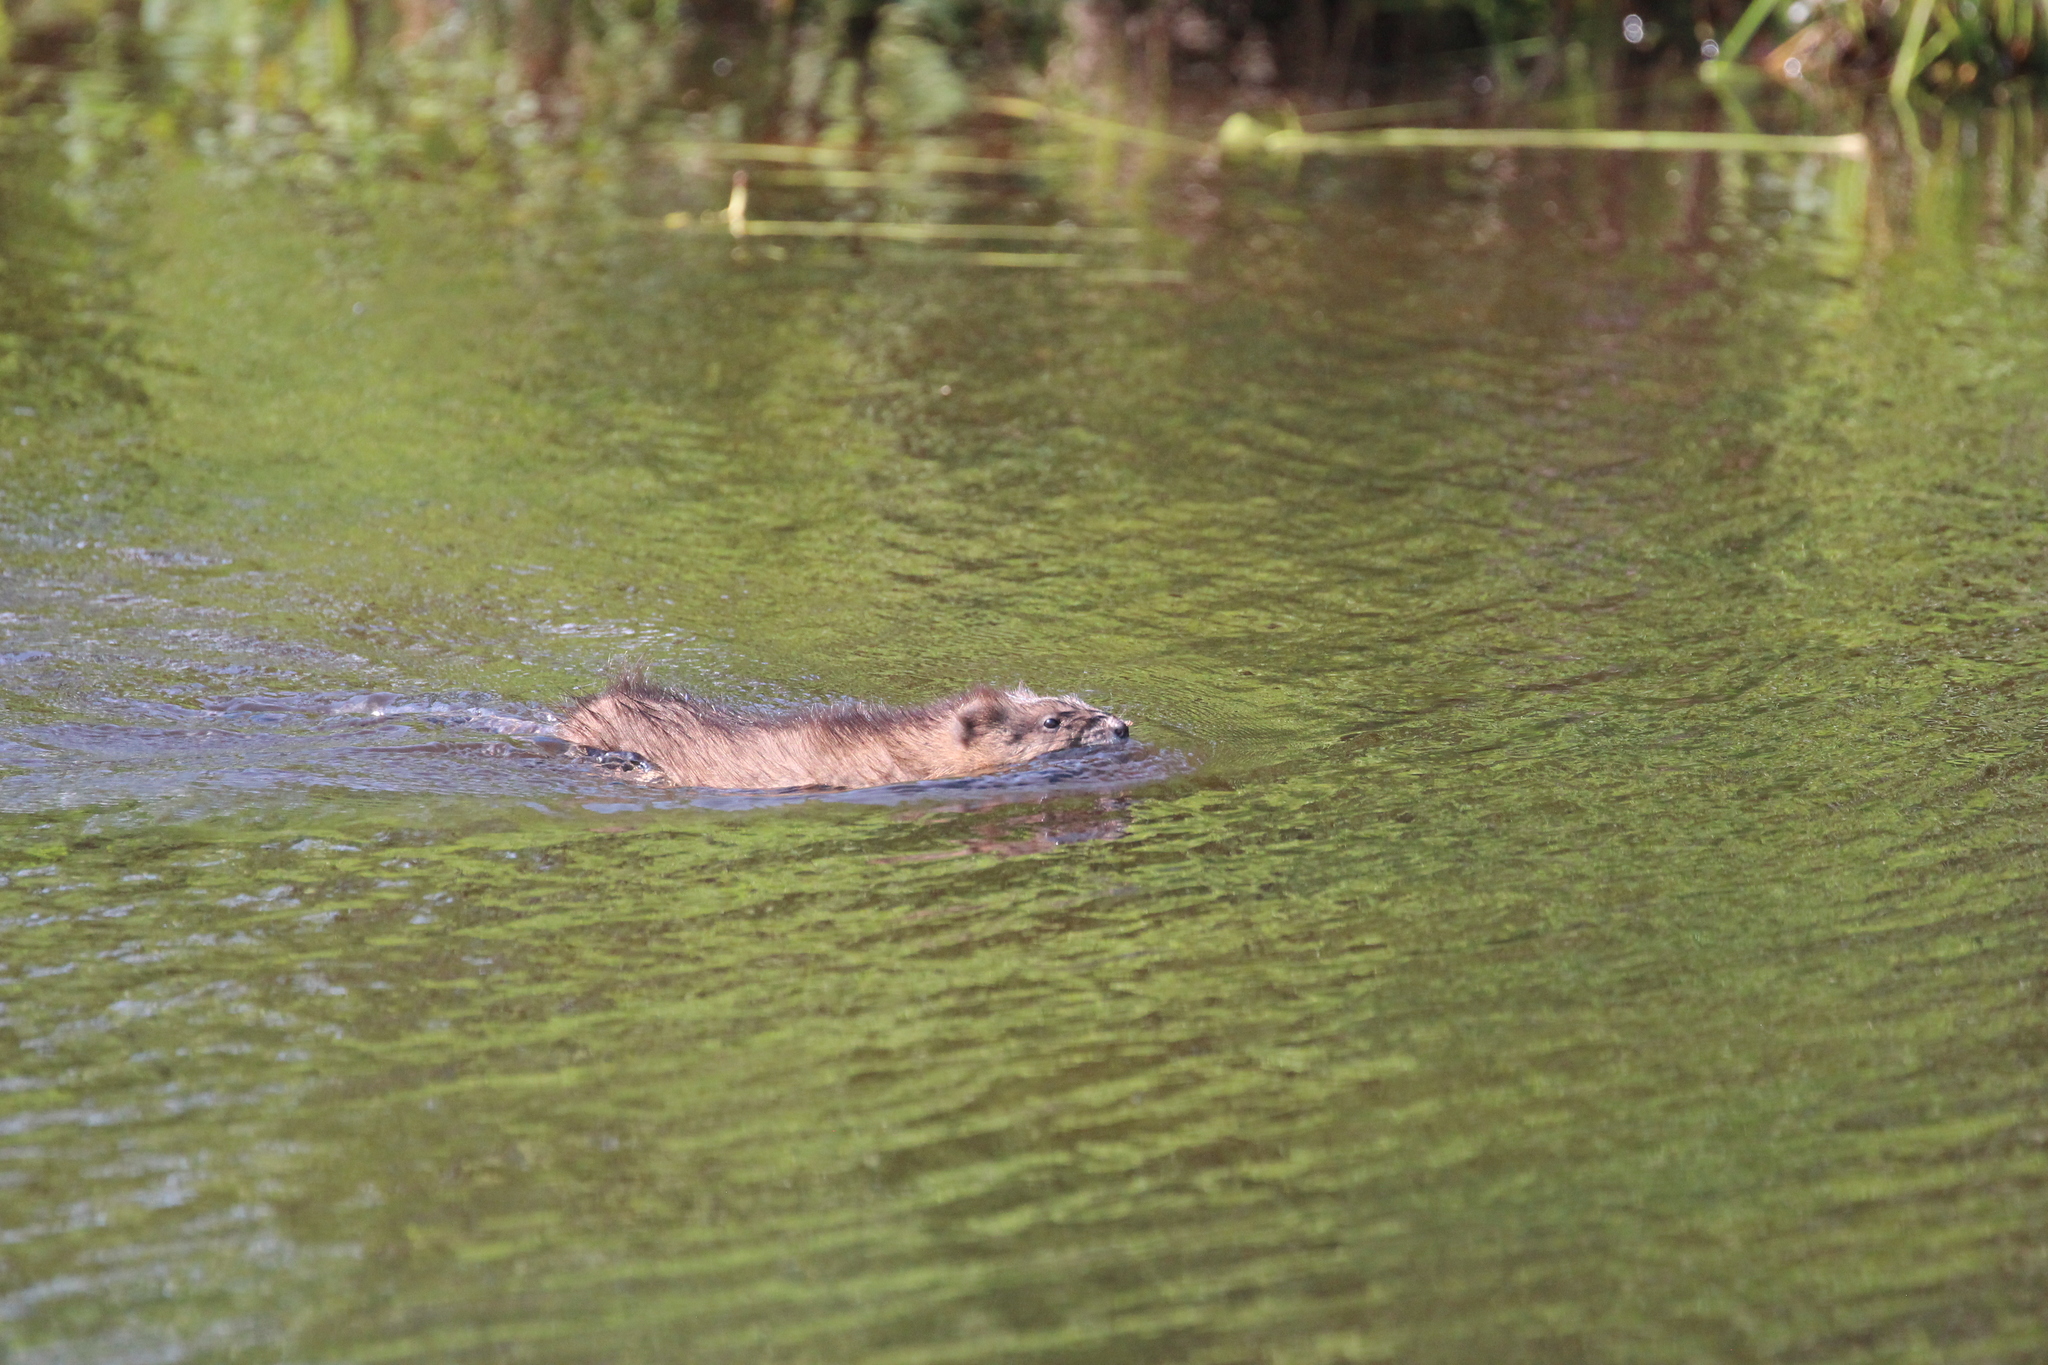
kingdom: Animalia
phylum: Chordata
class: Mammalia
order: Rodentia
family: Cricetidae
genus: Ondatra
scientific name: Ondatra zibethicus
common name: Muskrat
